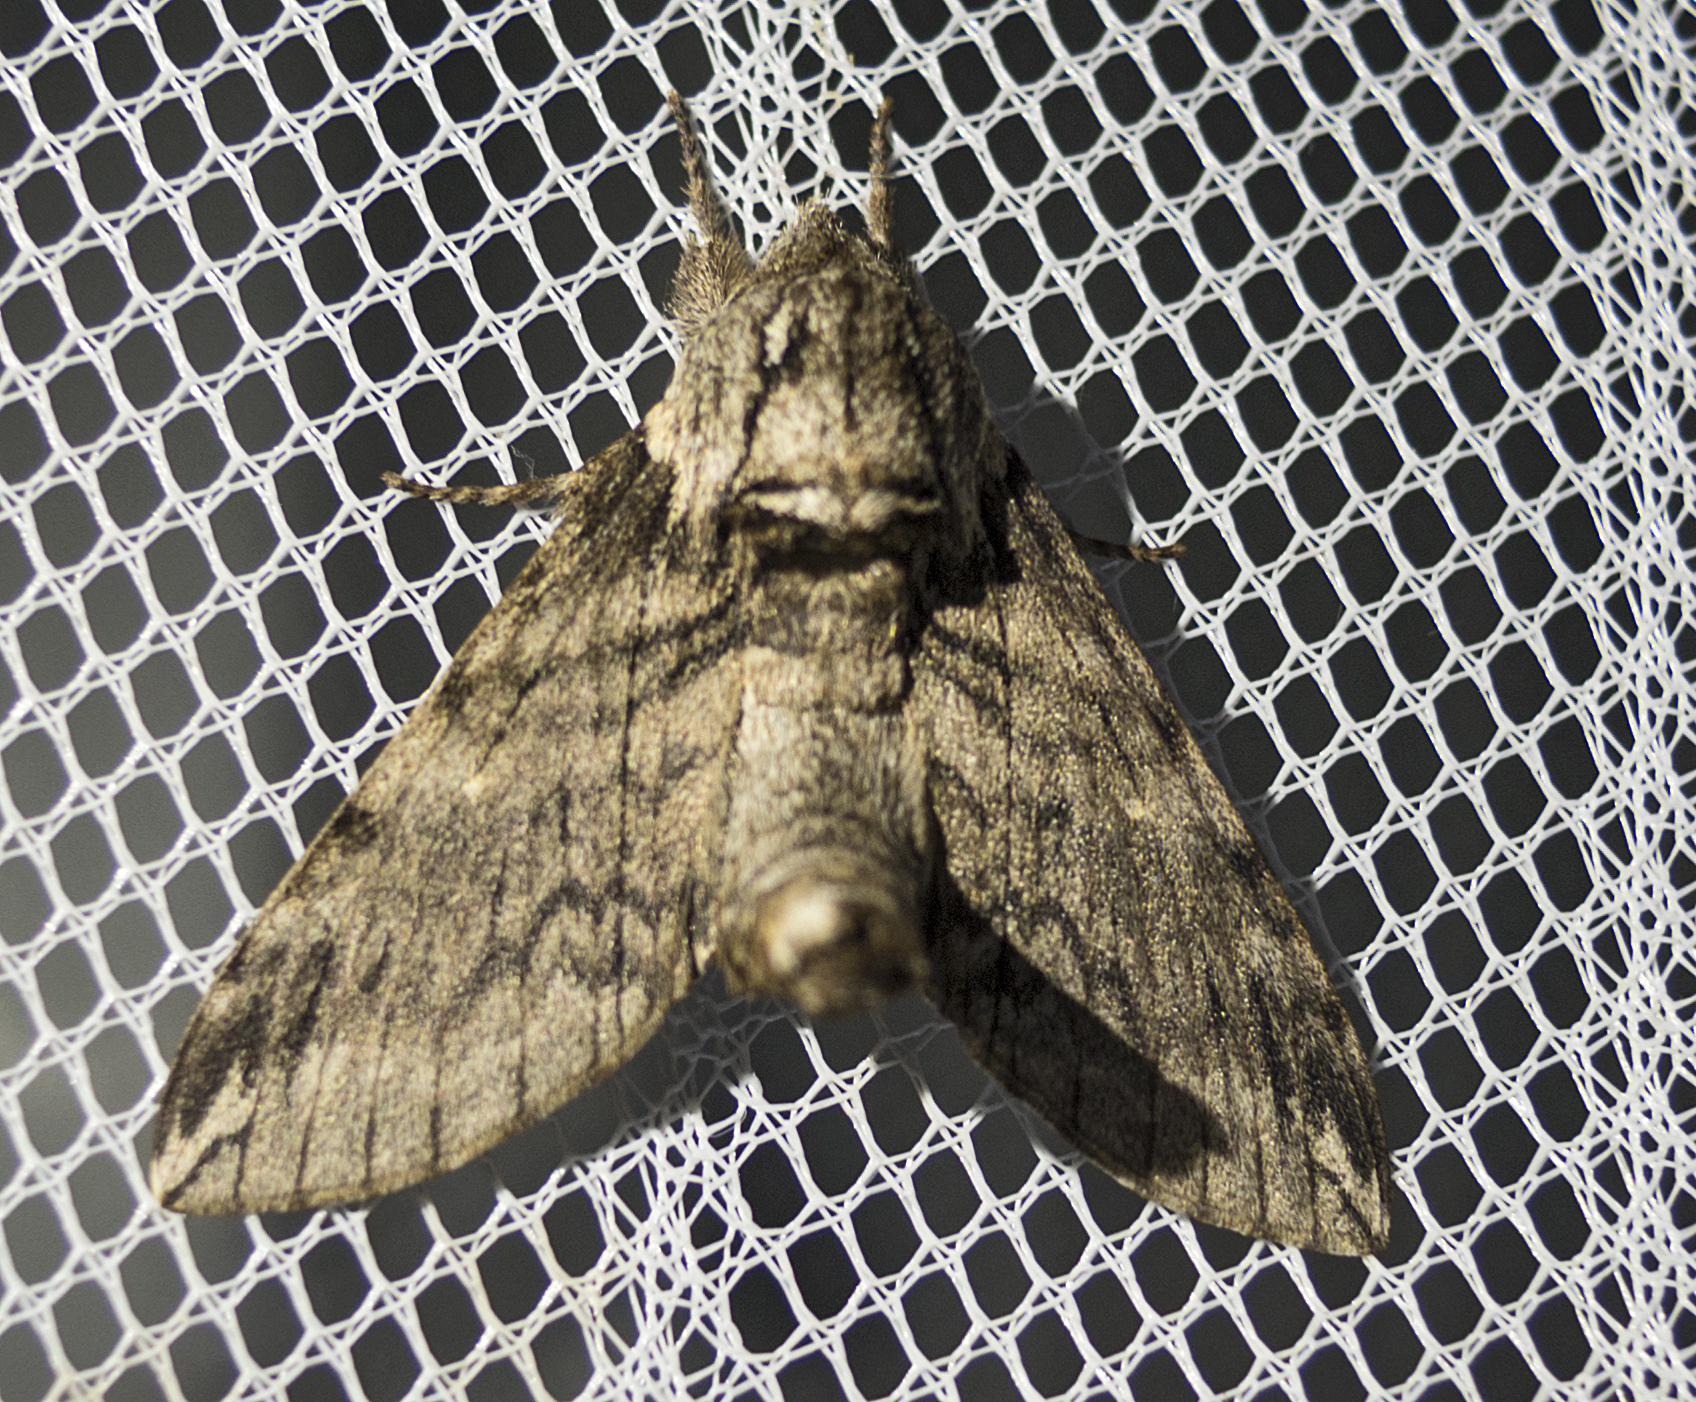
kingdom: Animalia
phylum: Arthropoda
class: Insecta
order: Lepidoptera
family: Sphingidae
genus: Dolbina
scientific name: Dolbina elegans
